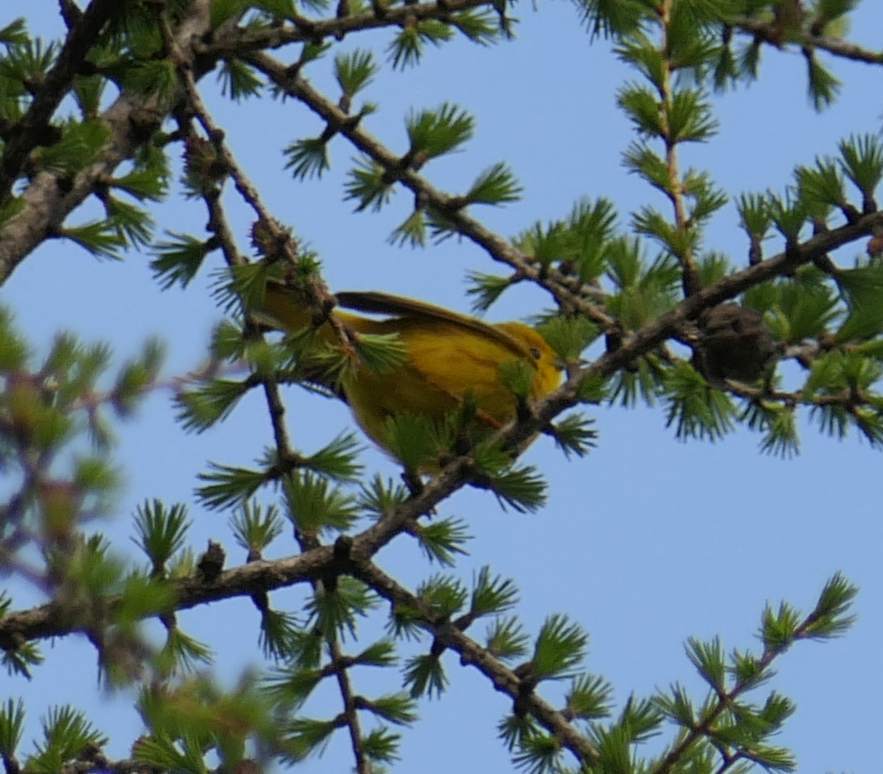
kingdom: Animalia
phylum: Chordata
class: Aves
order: Passeriformes
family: Parulidae
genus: Setophaga
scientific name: Setophaga petechia
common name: Yellow warbler
